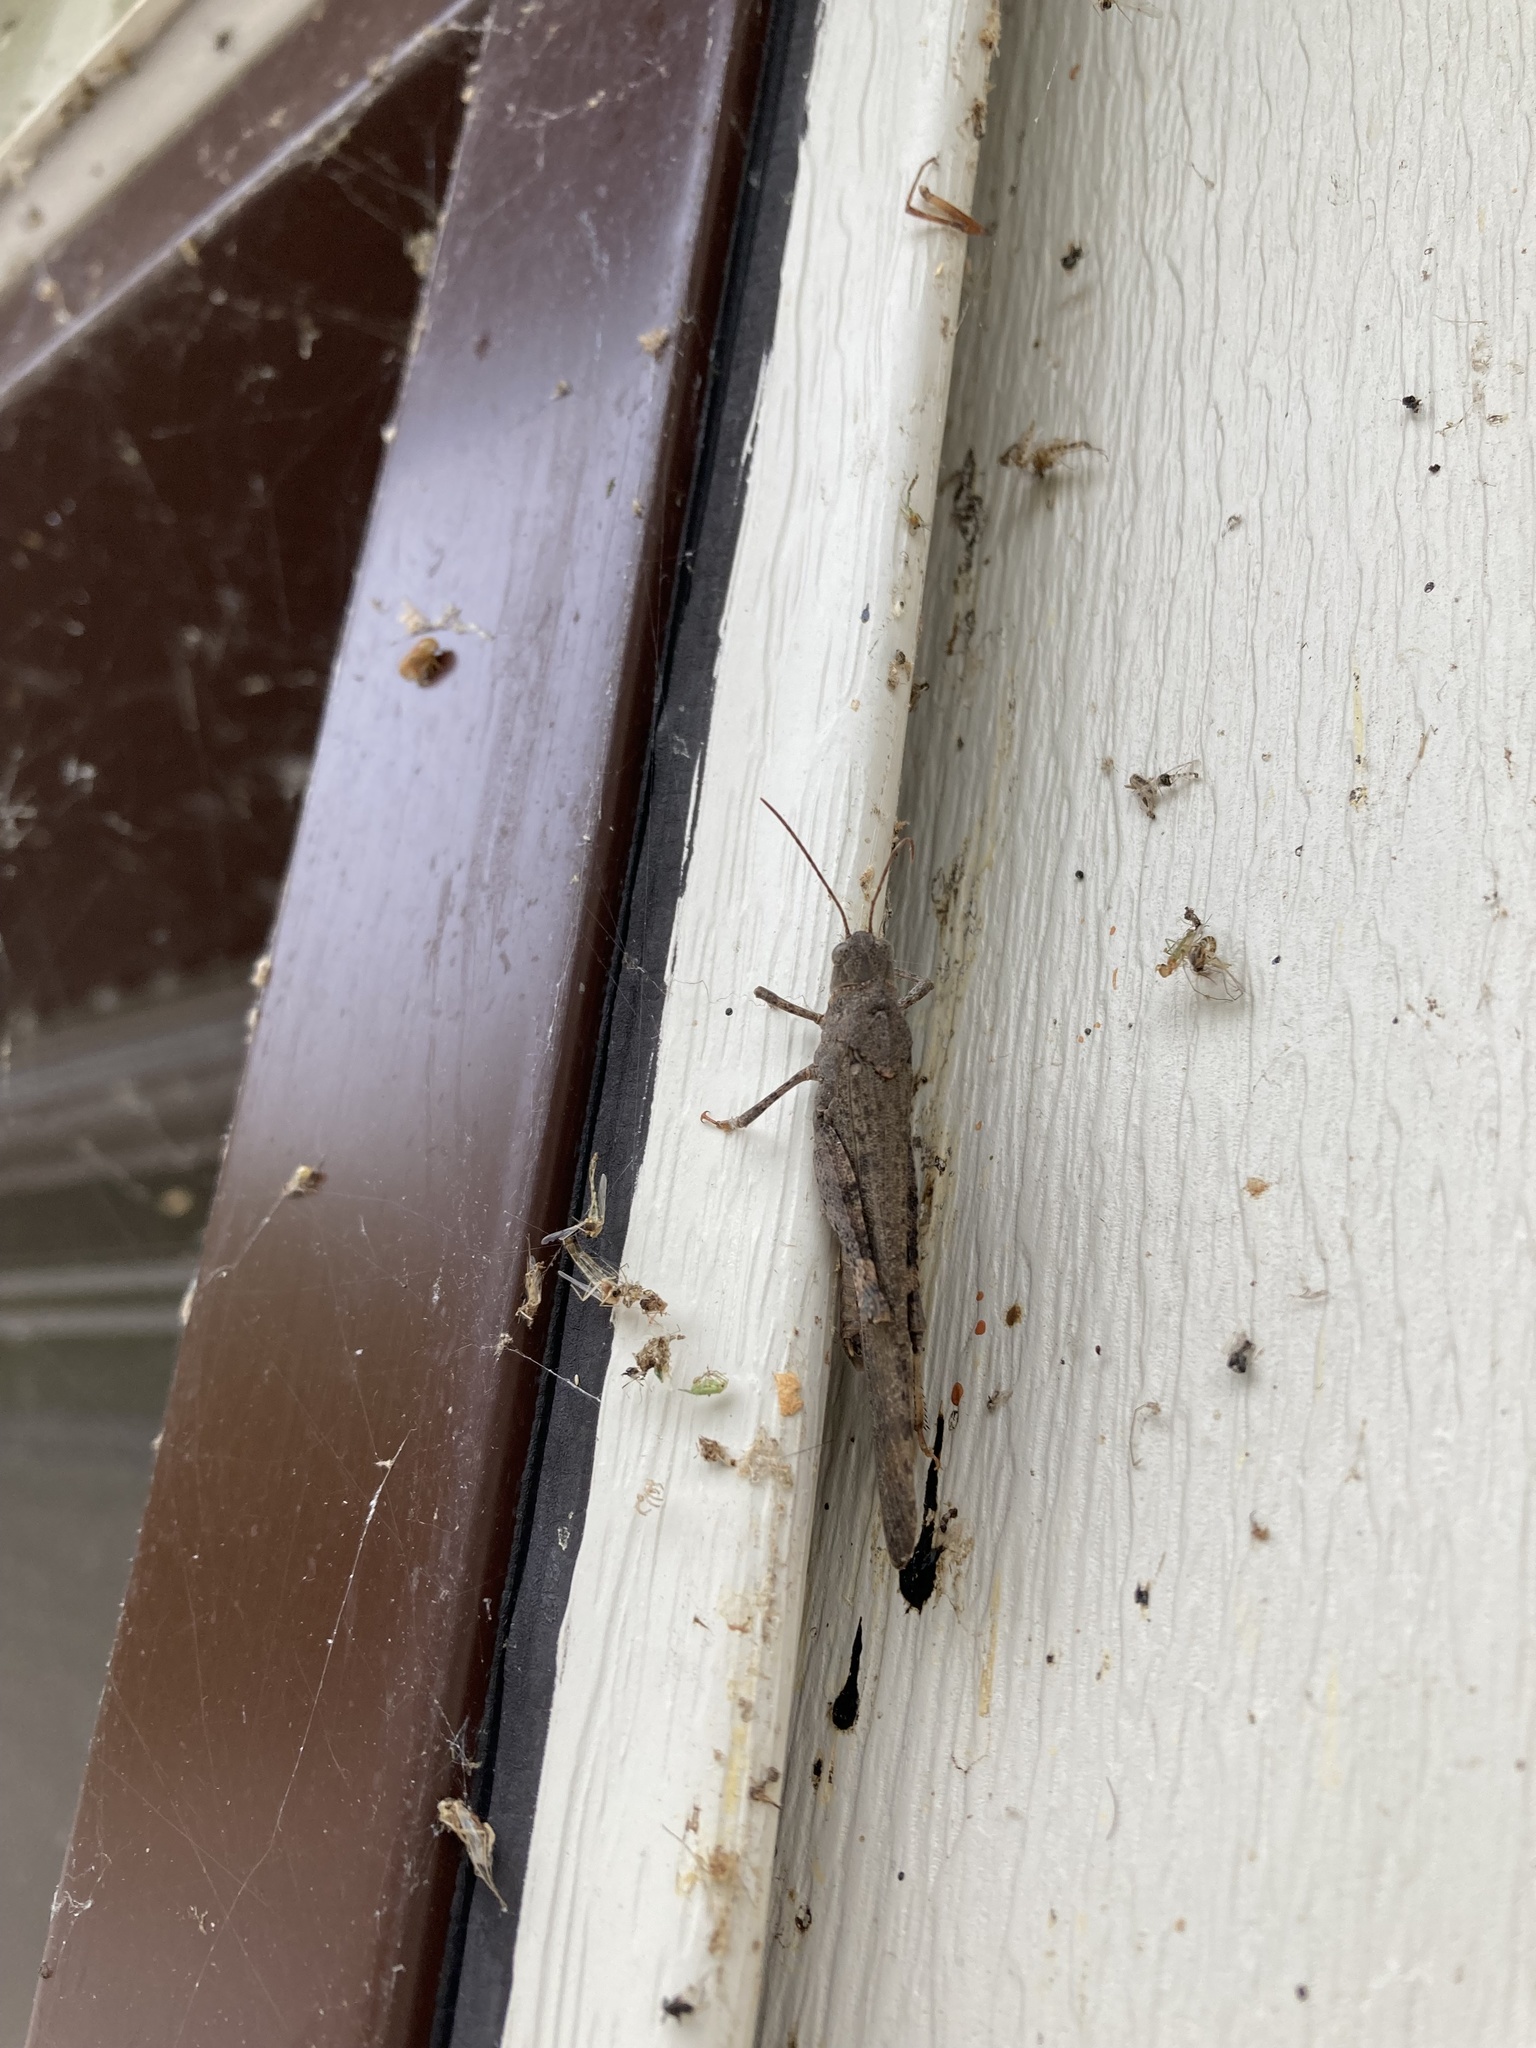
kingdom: Animalia
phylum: Arthropoda
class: Insecta
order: Orthoptera
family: Acrididae
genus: Dissosteira
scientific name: Dissosteira carolina
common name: Carolina grasshopper
